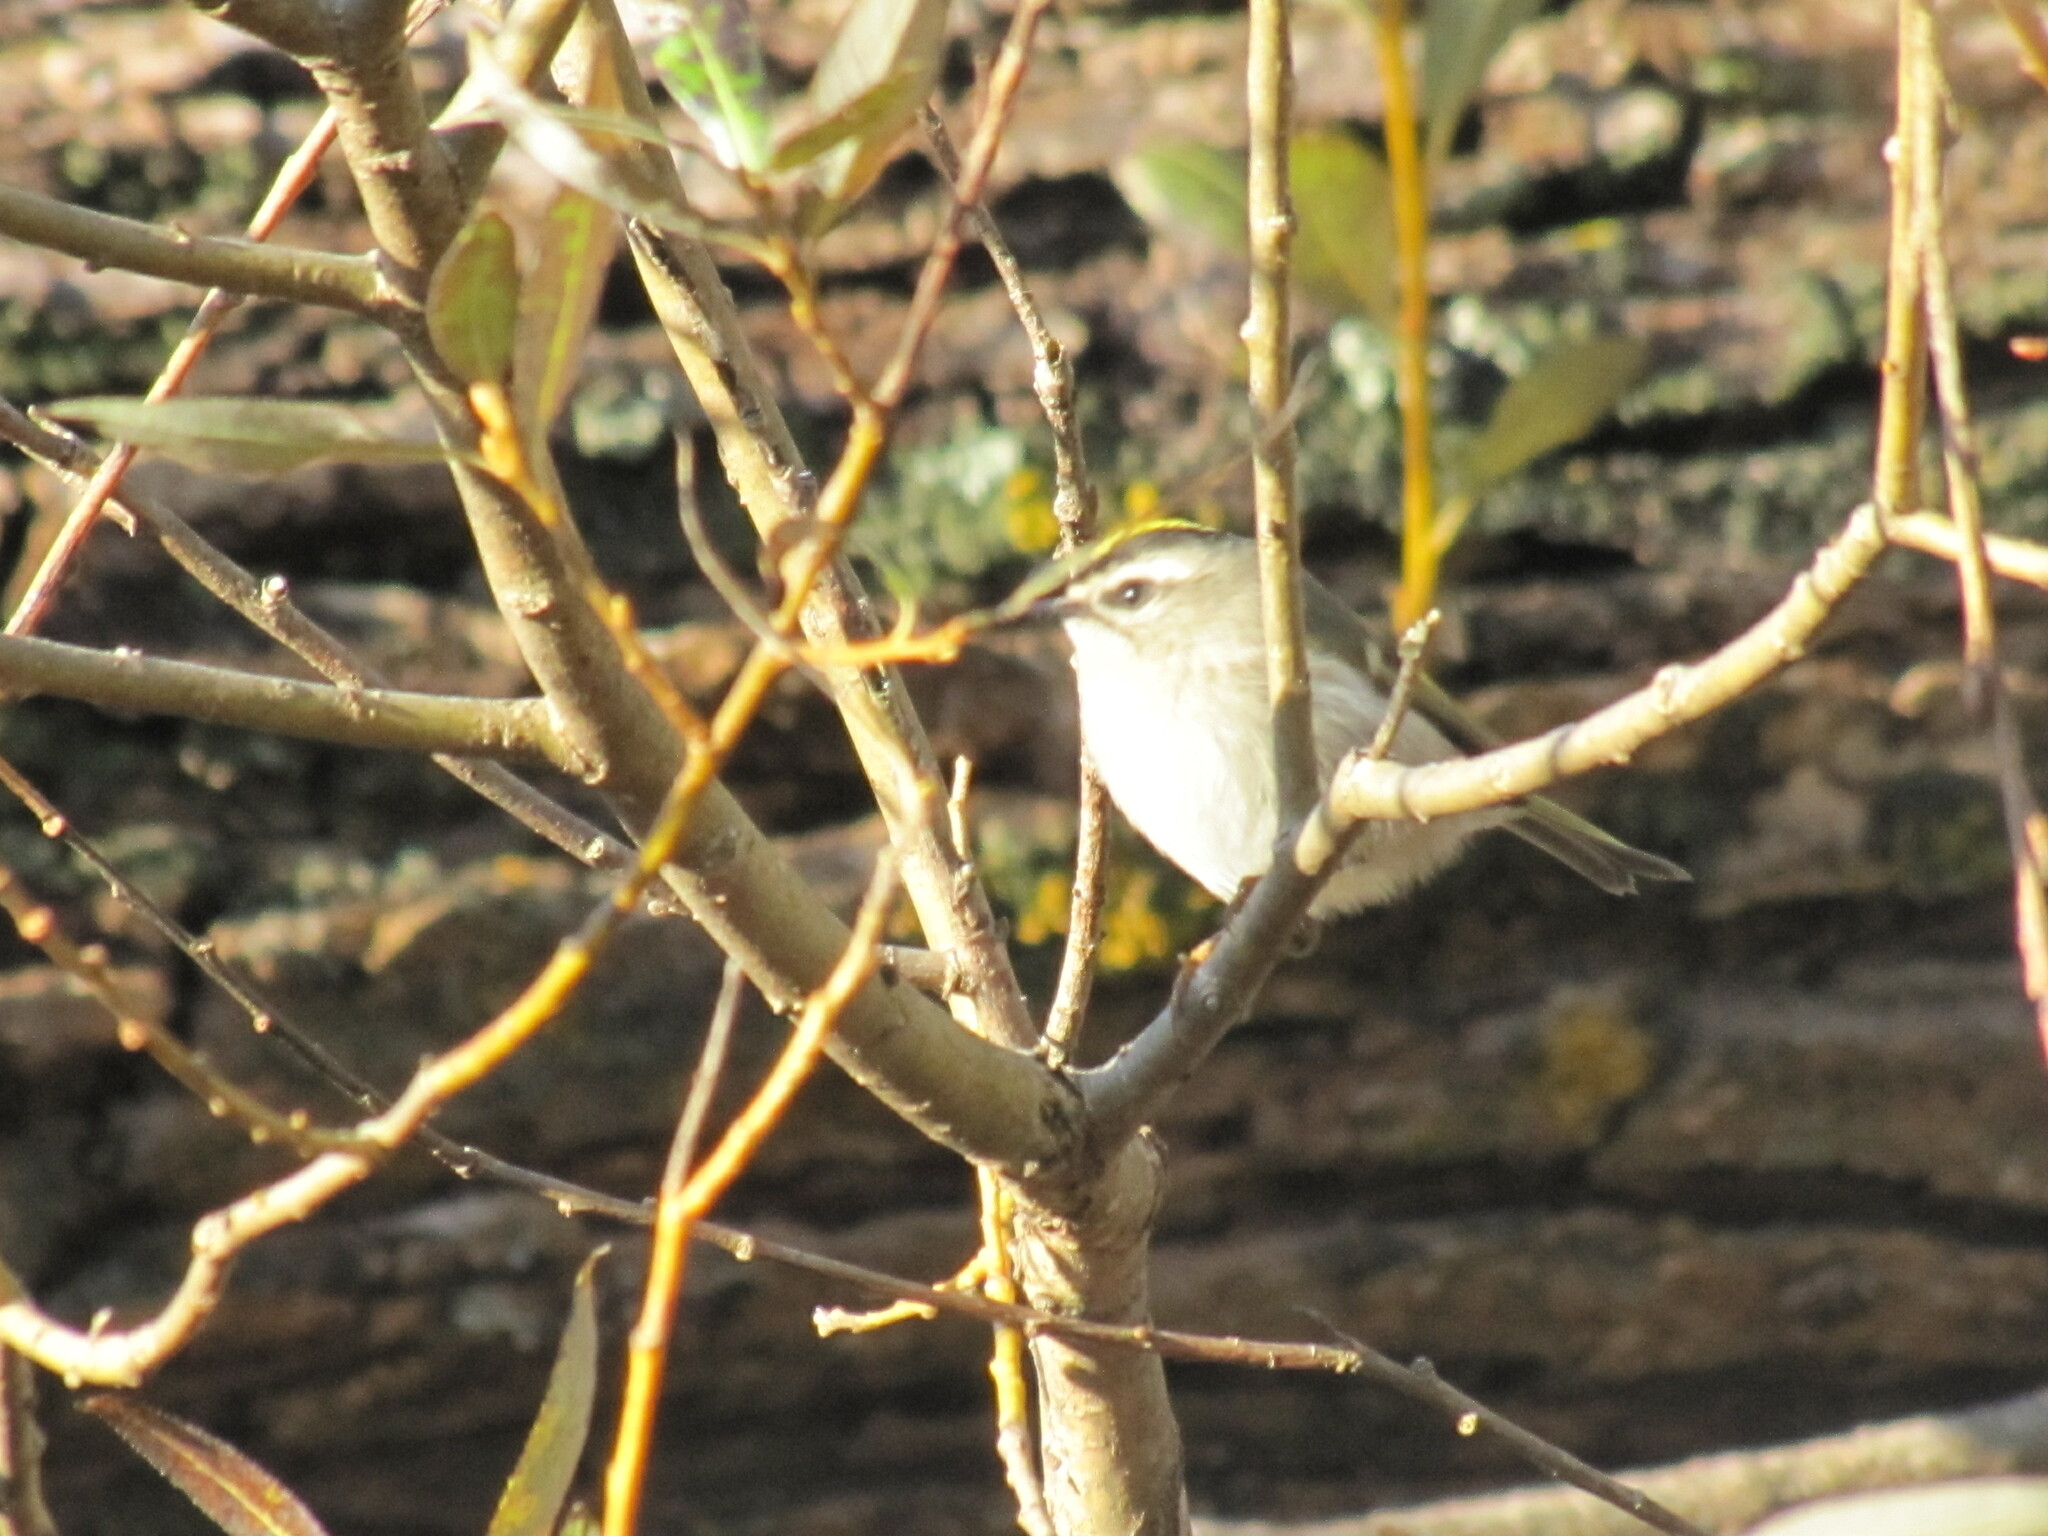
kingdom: Animalia
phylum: Chordata
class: Aves
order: Passeriformes
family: Regulidae
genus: Regulus
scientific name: Regulus satrapa
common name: Golden-crowned kinglet
